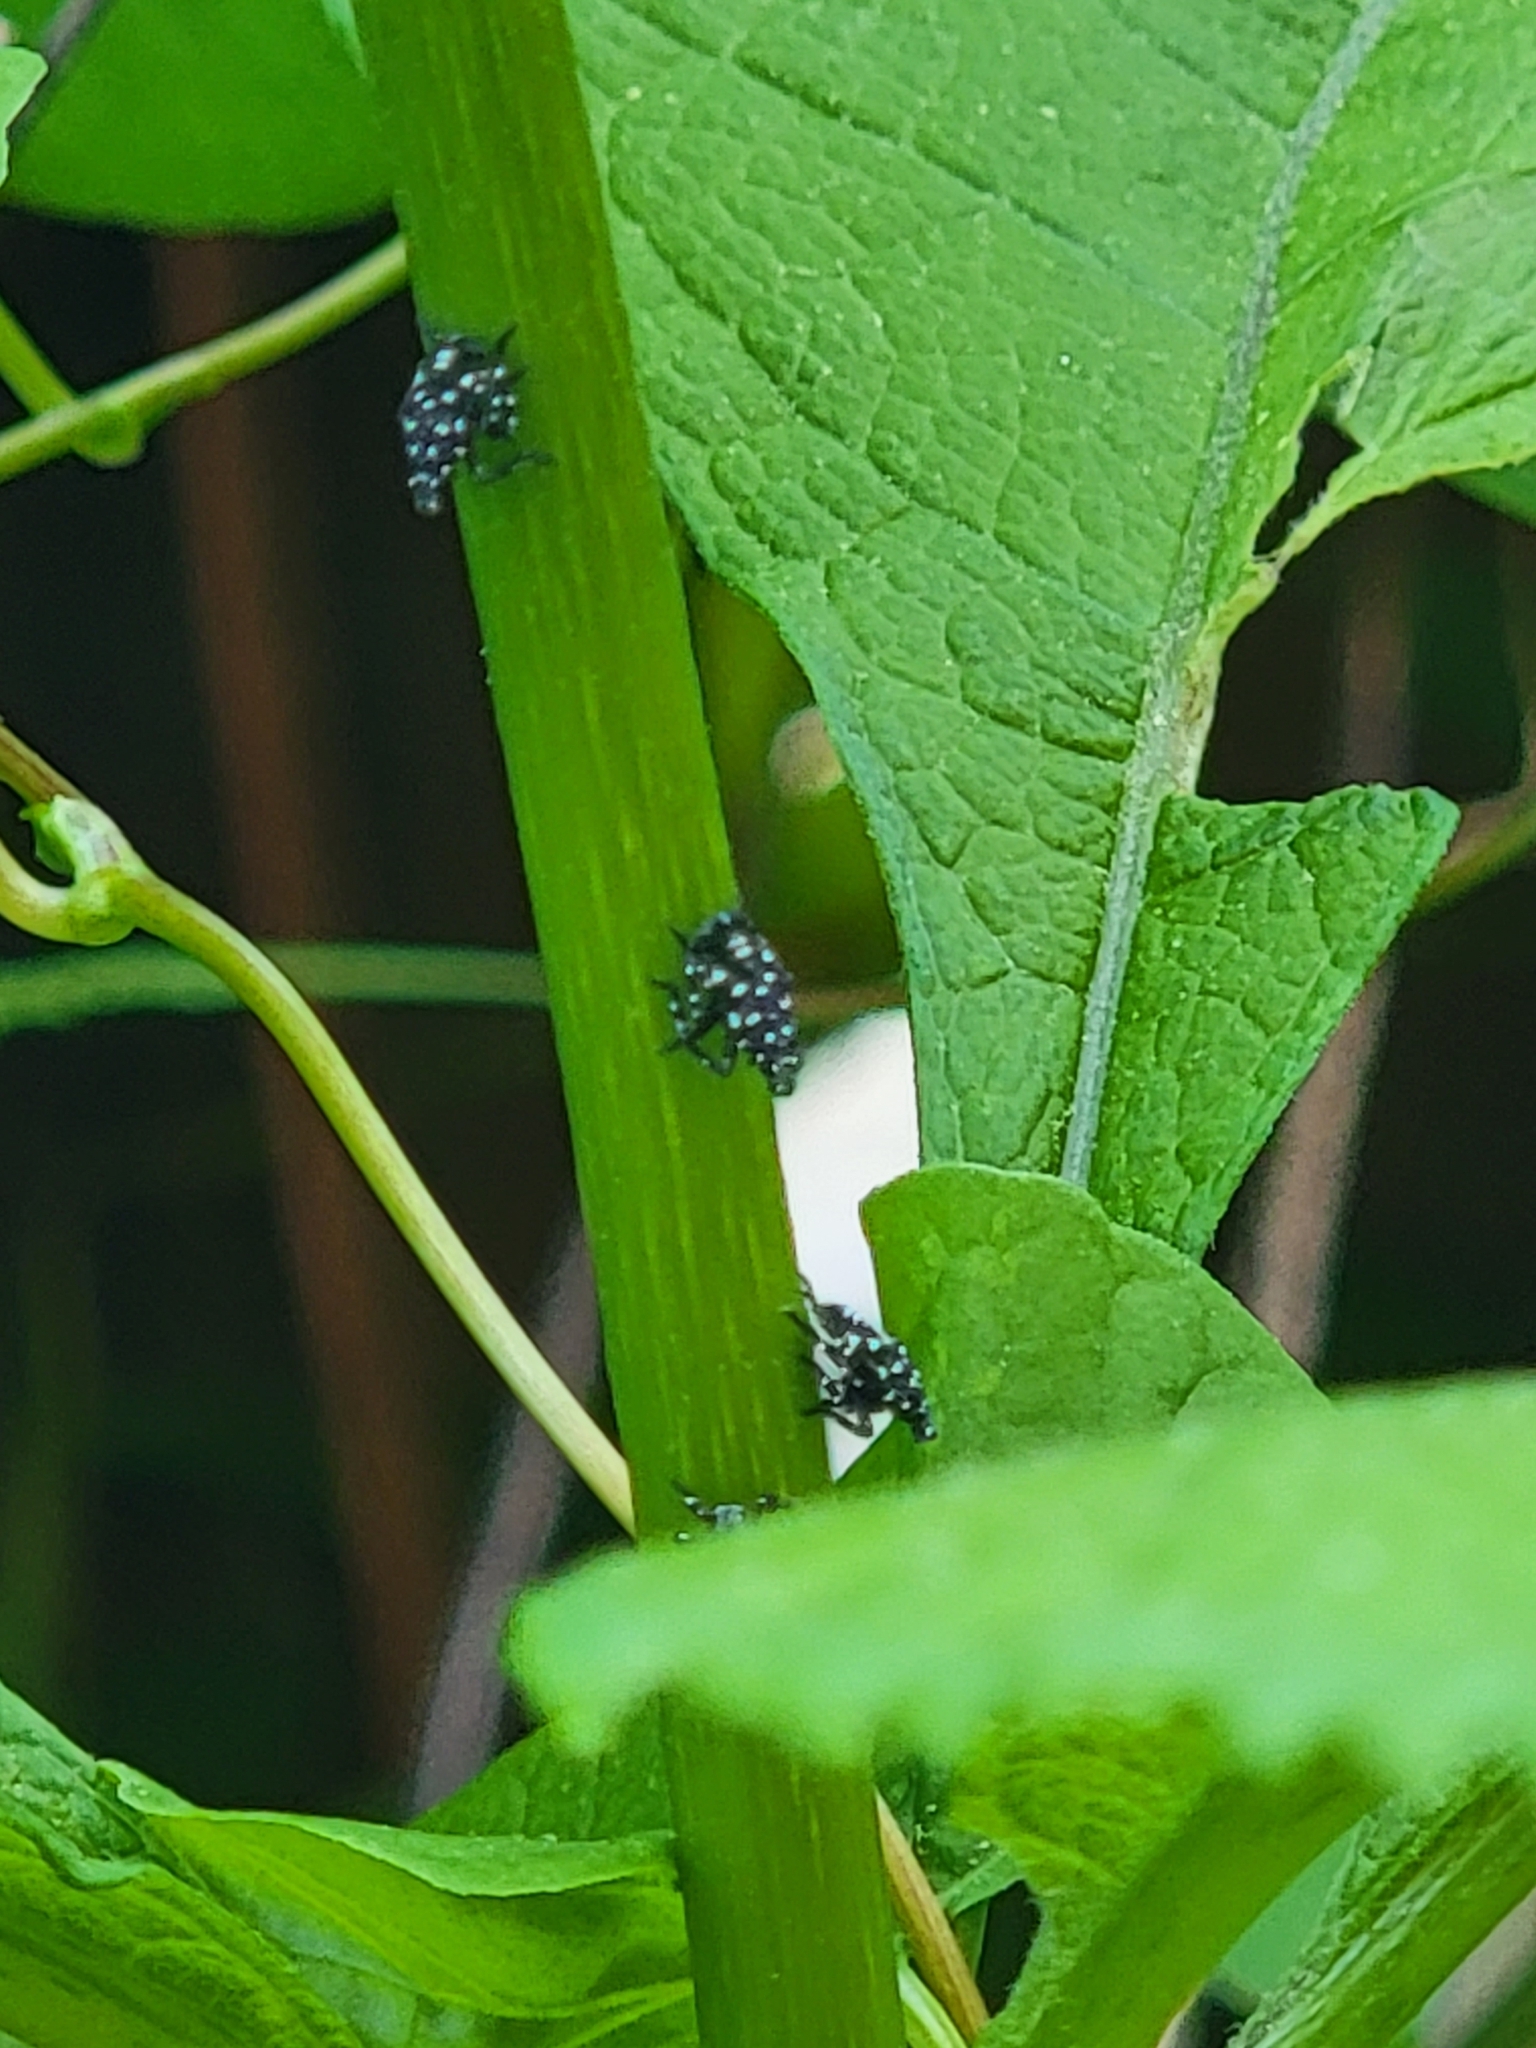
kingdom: Animalia
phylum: Arthropoda
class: Insecta
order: Hemiptera
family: Fulgoridae
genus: Lycorma
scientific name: Lycorma delicatula
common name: Spotted lanternfly
